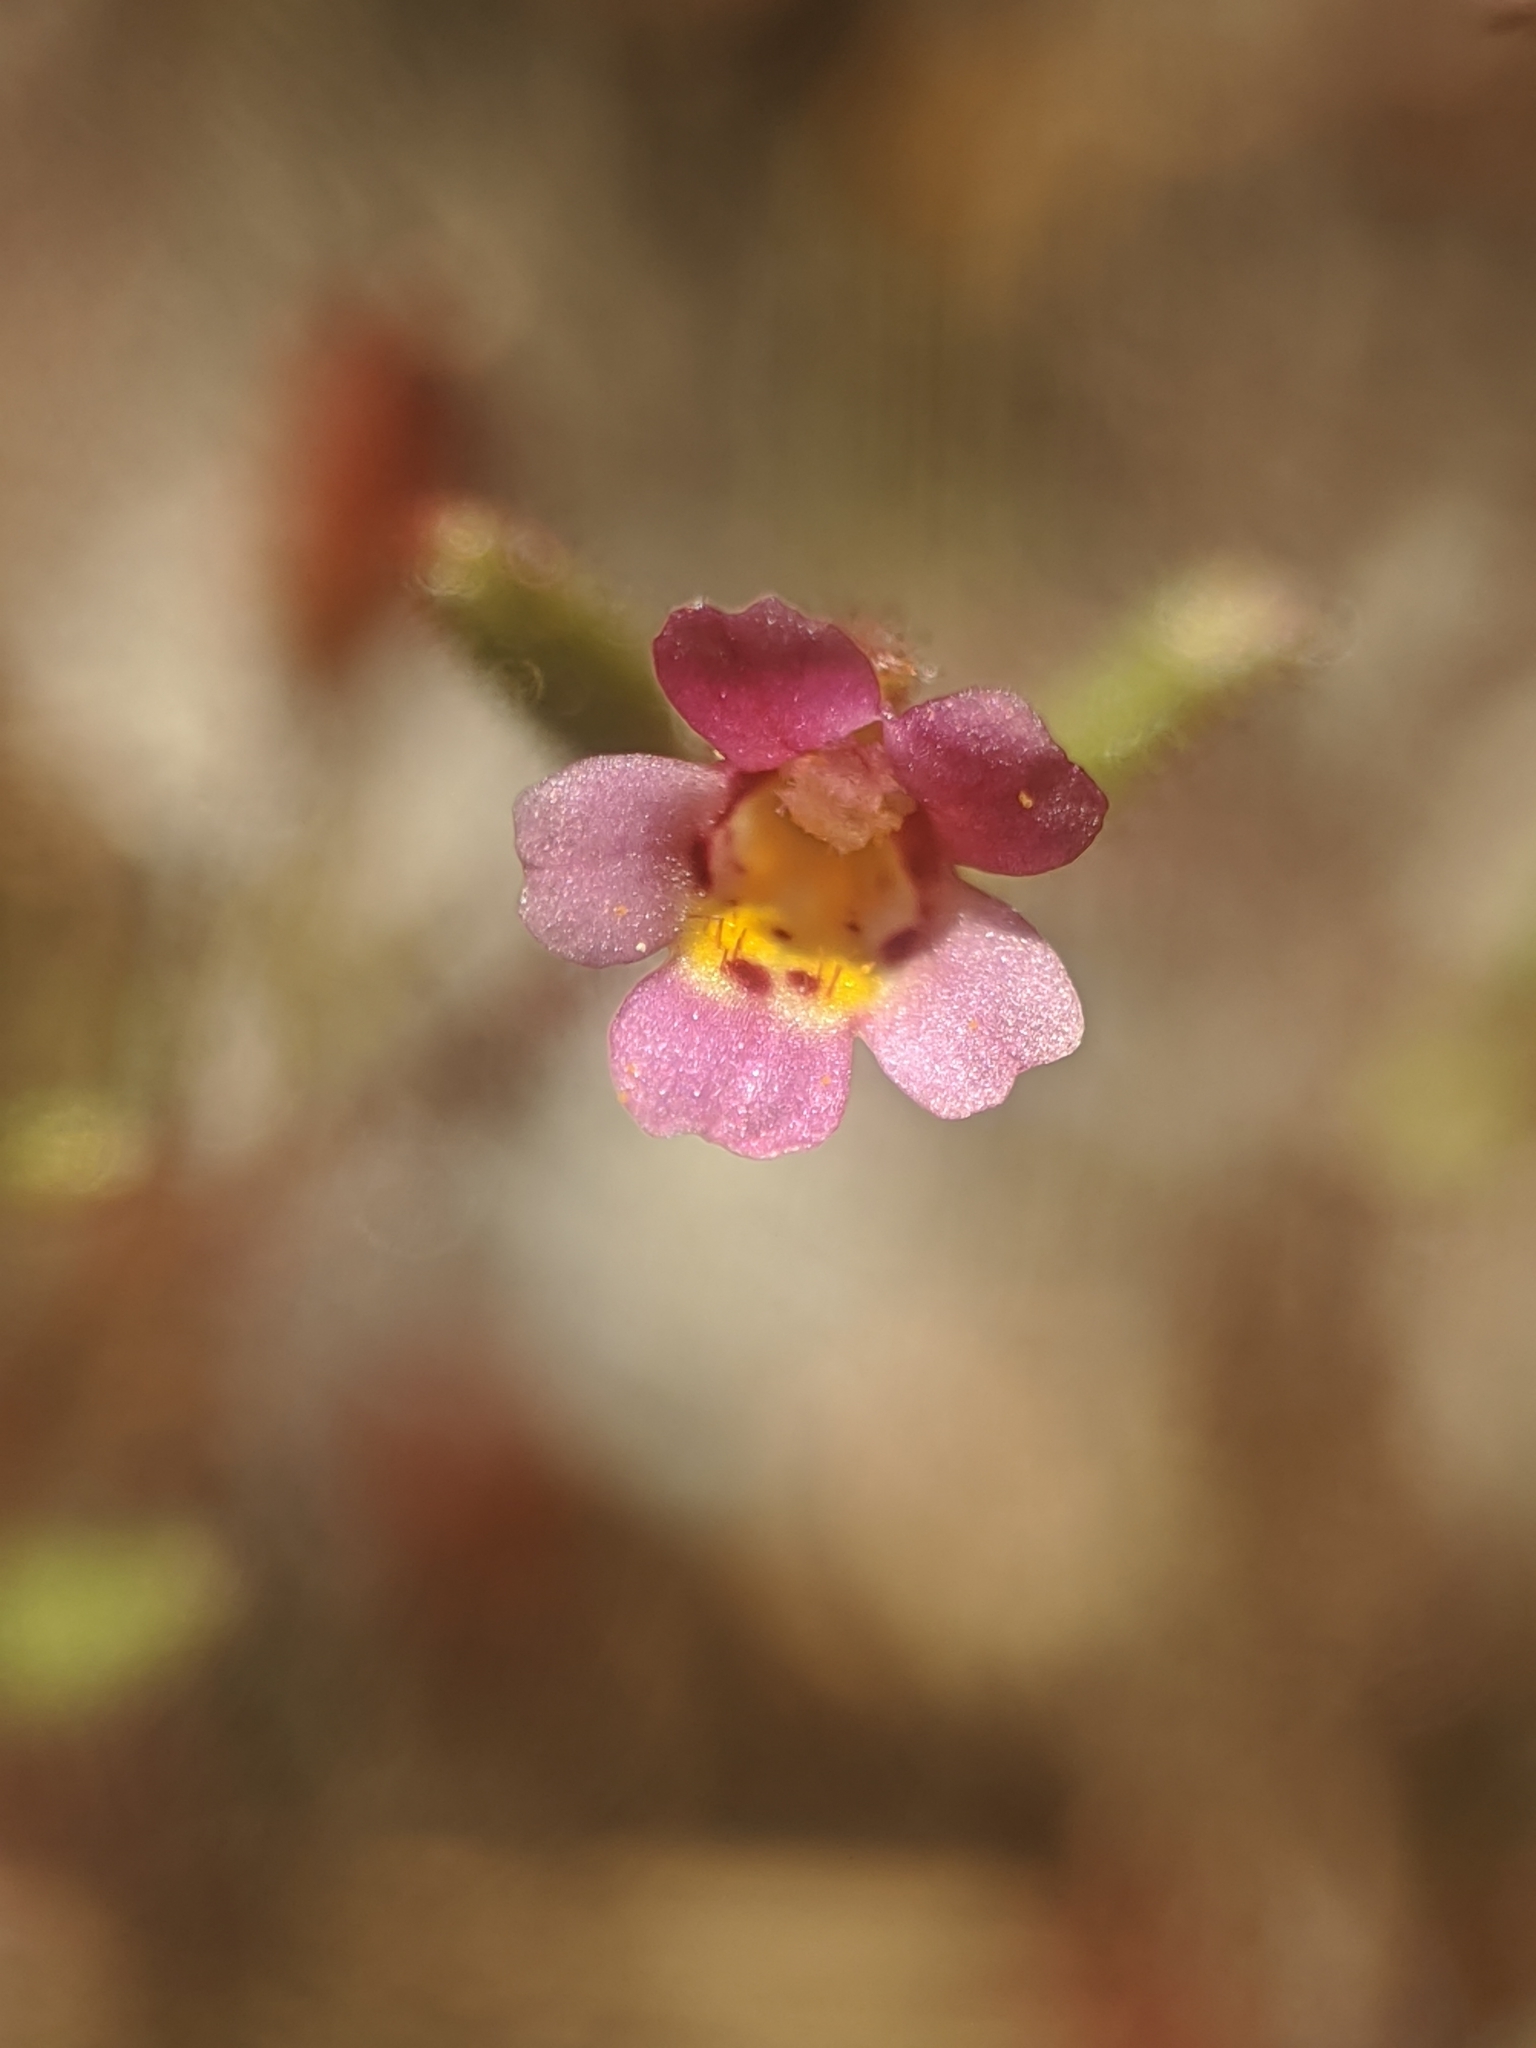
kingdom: Plantae
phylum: Tracheophyta
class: Magnoliopsida
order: Lamiales
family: Phrymaceae
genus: Erythranthe
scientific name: Erythranthe breweri
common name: Brewer's monkeyflower
